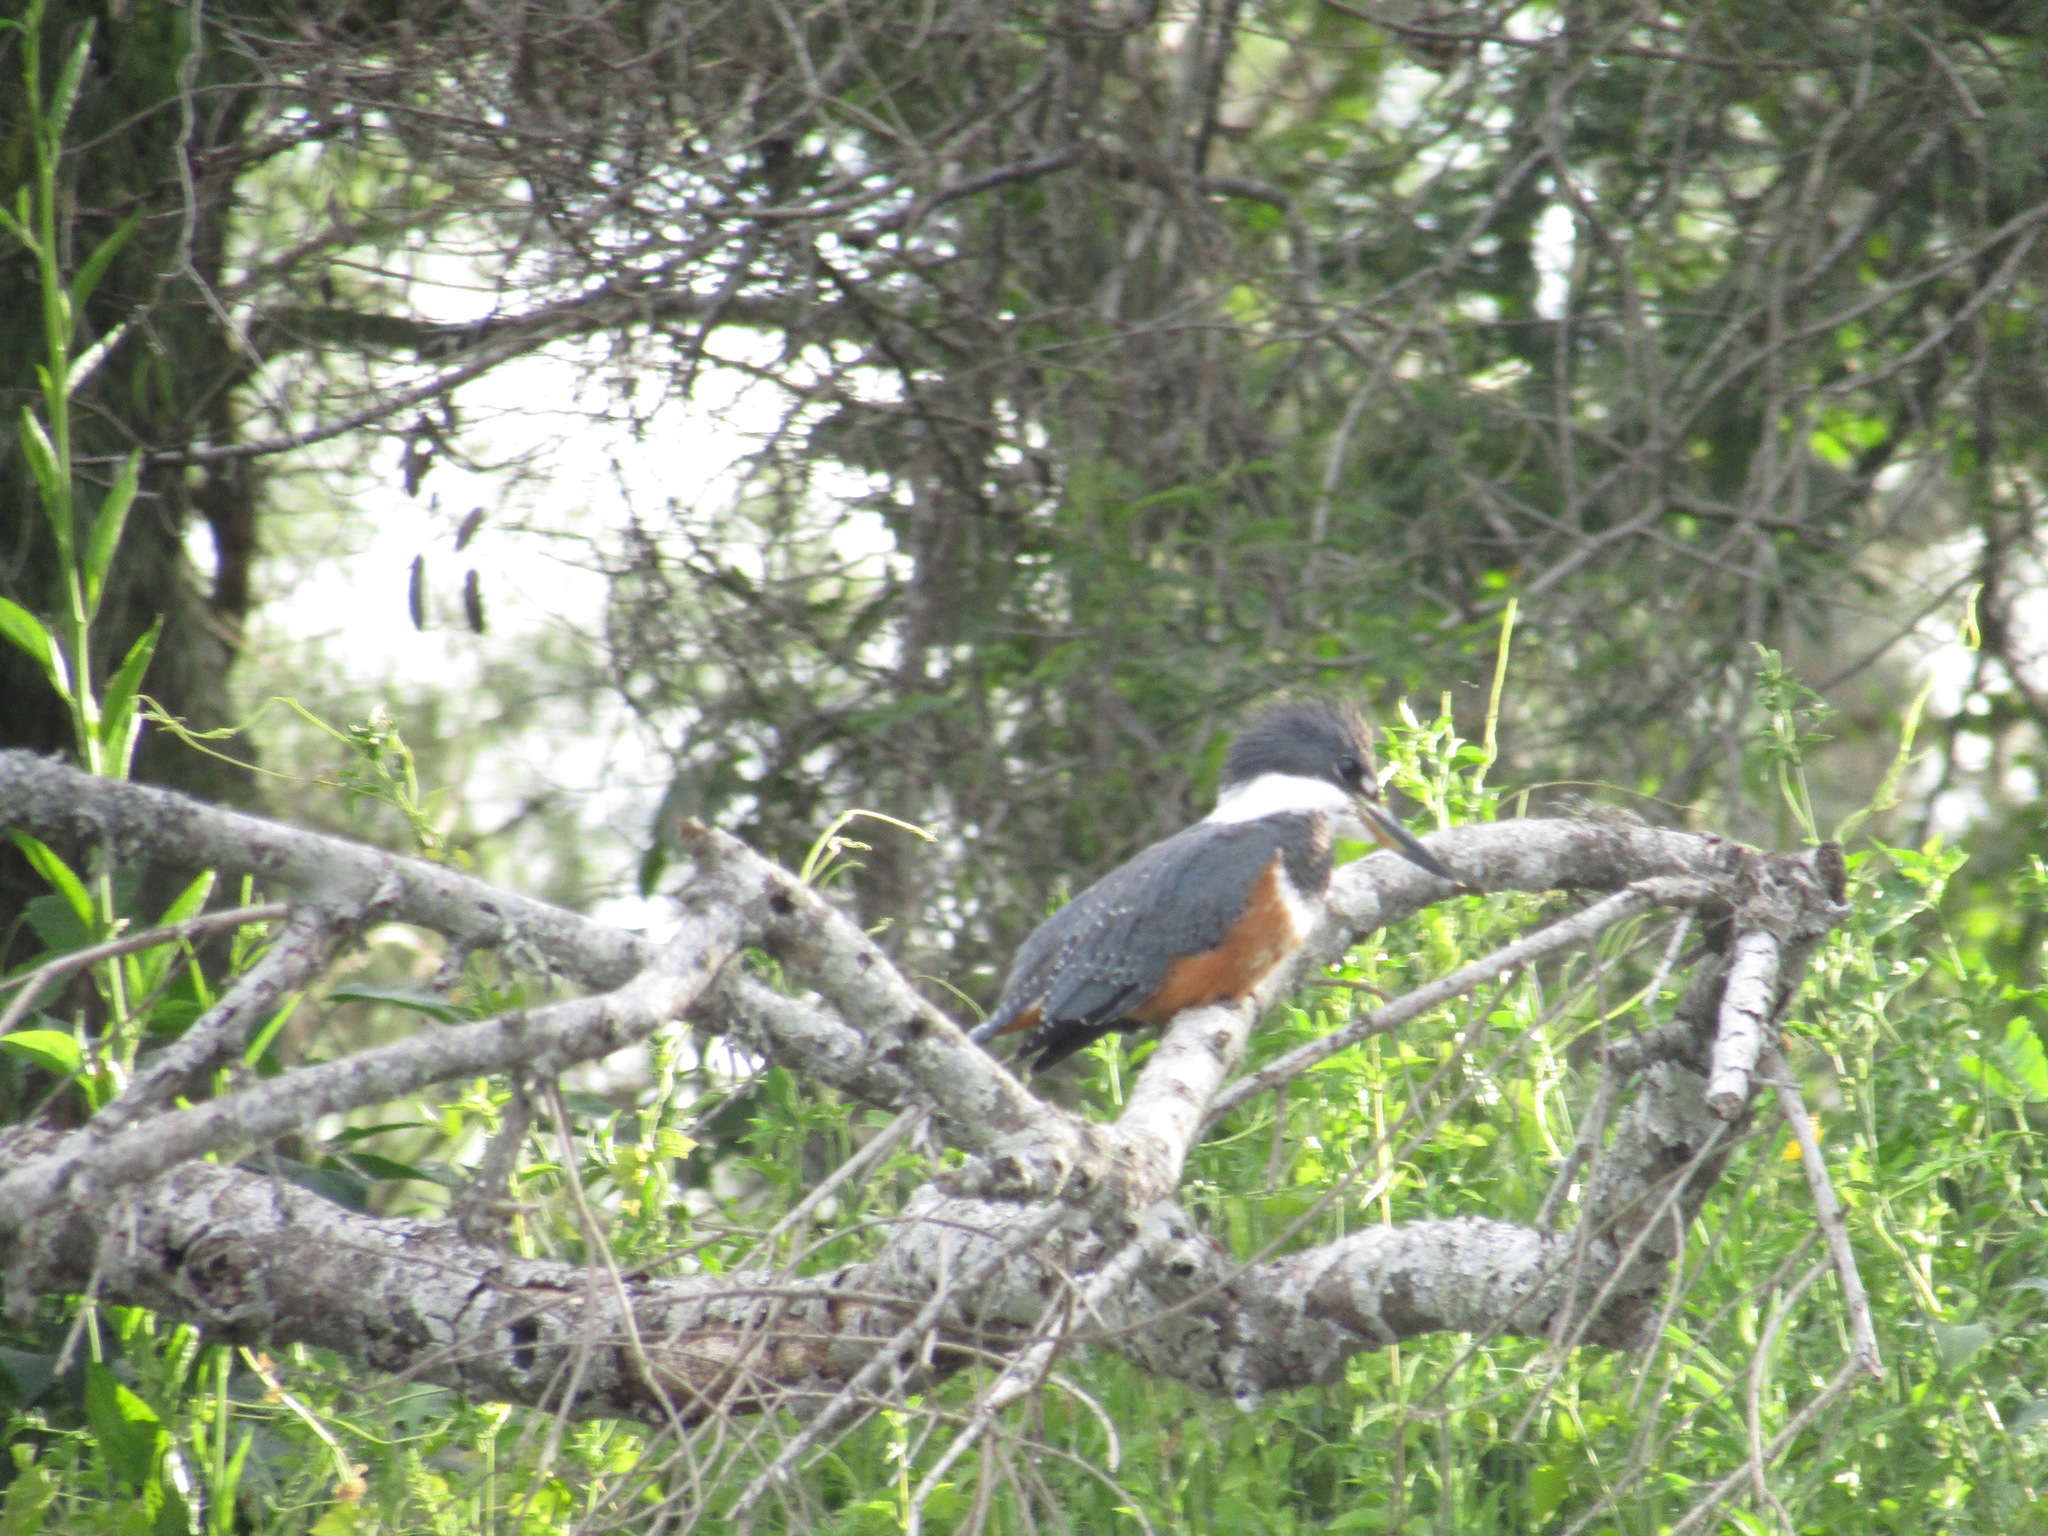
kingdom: Animalia
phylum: Chordata
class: Aves
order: Coraciiformes
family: Alcedinidae
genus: Megaceryle
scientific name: Megaceryle torquata
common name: Ringed kingfisher
